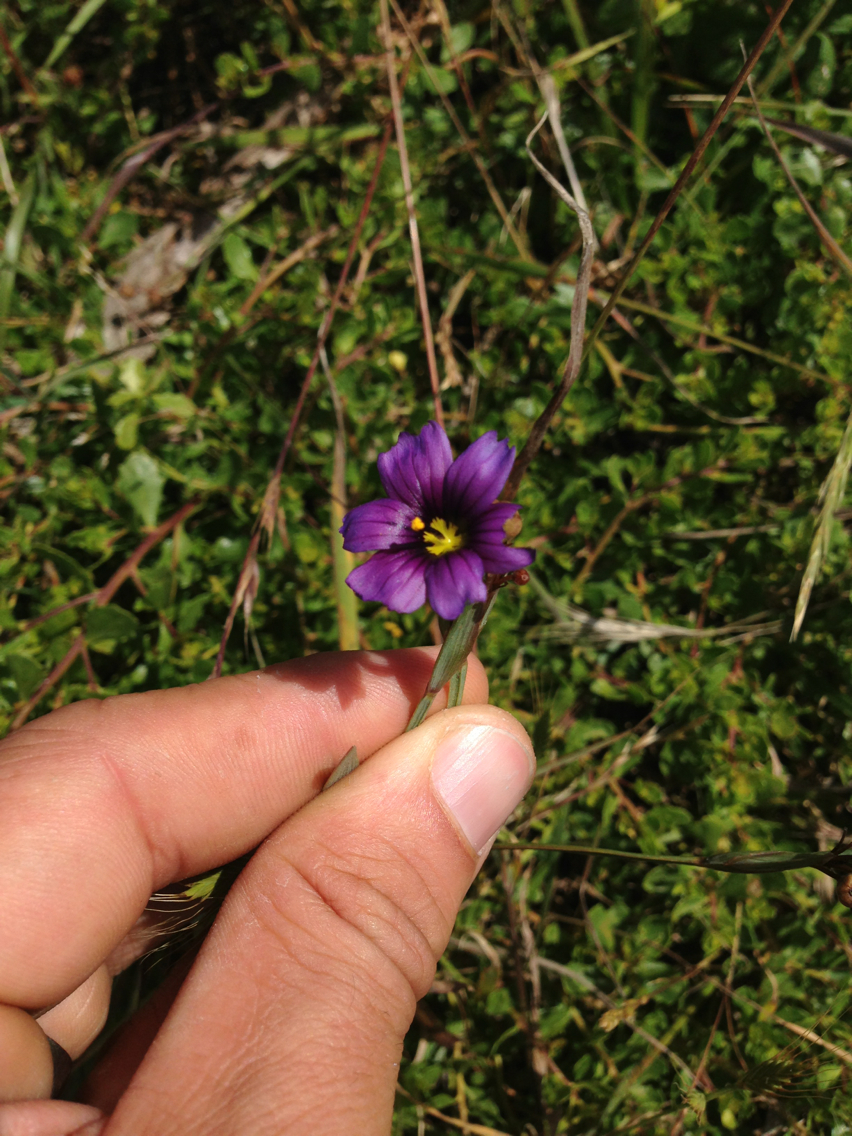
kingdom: Plantae
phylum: Tracheophyta
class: Liliopsida
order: Asparagales
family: Iridaceae
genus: Sisyrinchium
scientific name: Sisyrinchium bellum
